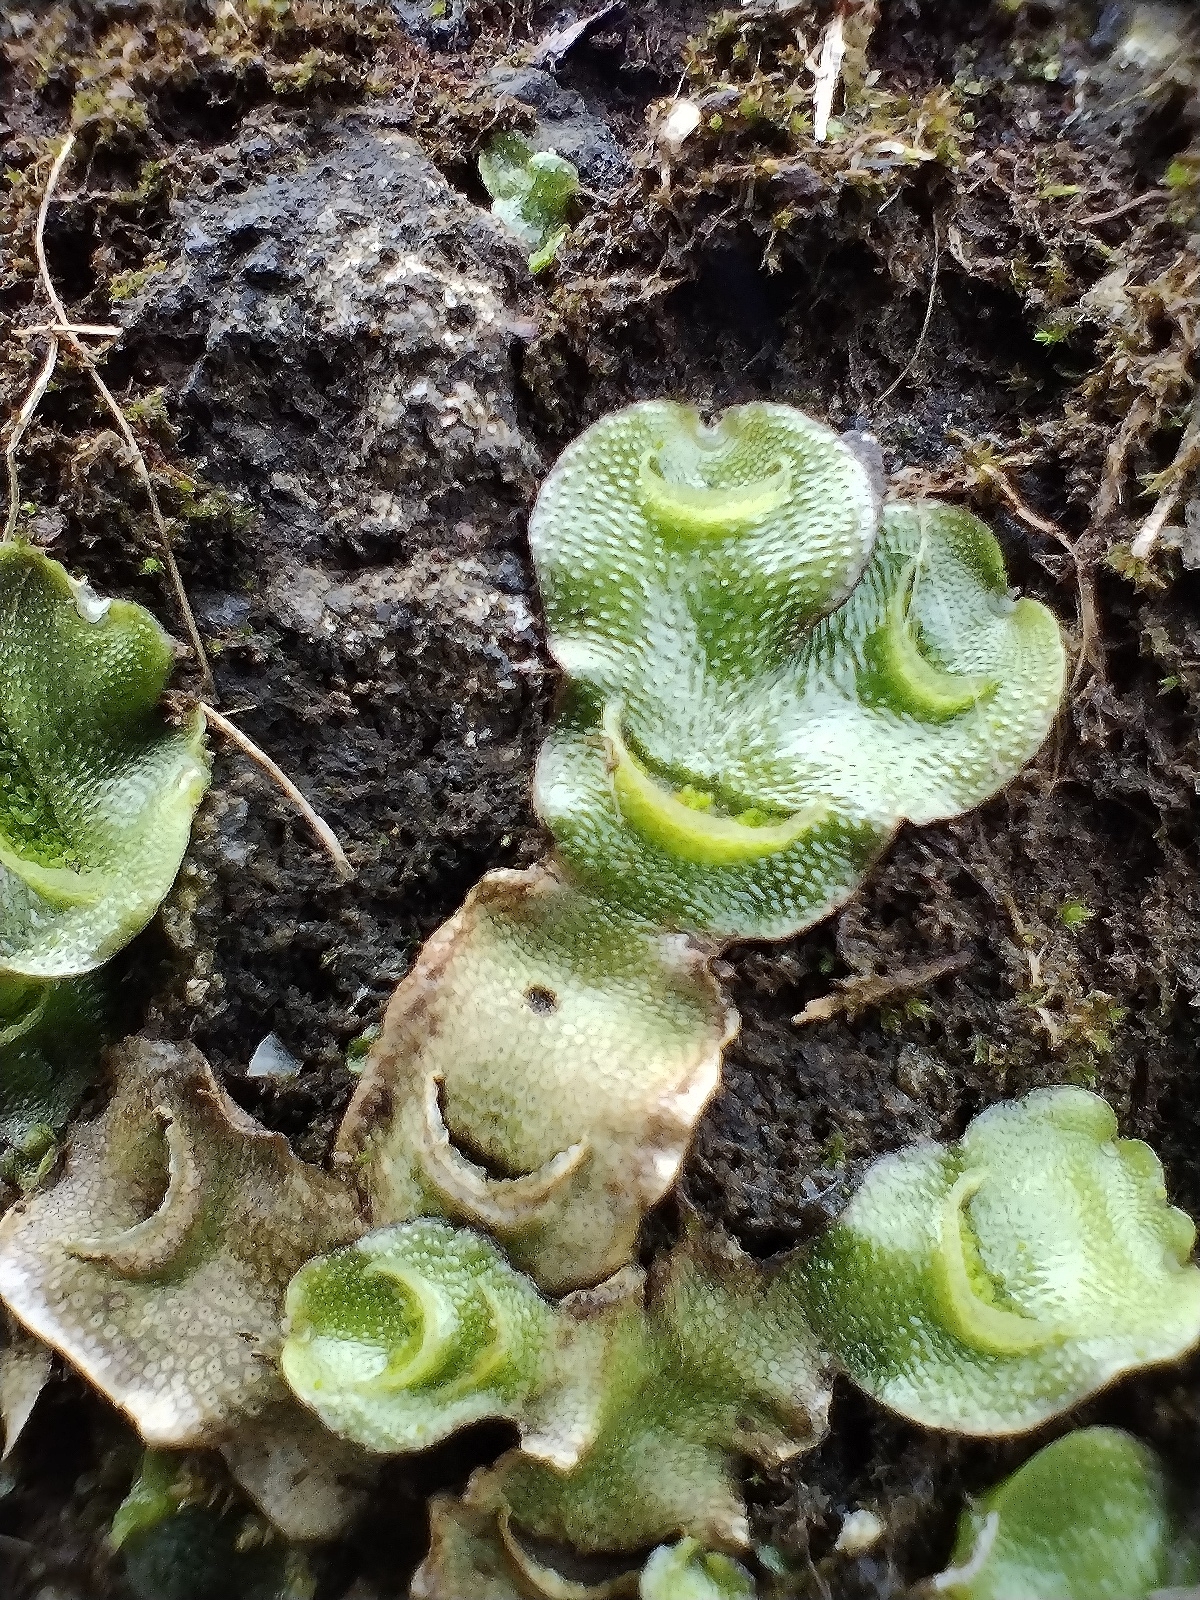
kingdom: Plantae
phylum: Marchantiophyta
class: Marchantiopsida
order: Lunulariales
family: Lunulariaceae
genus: Lunularia
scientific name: Lunularia cruciata
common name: Crescent-cup liverwort
